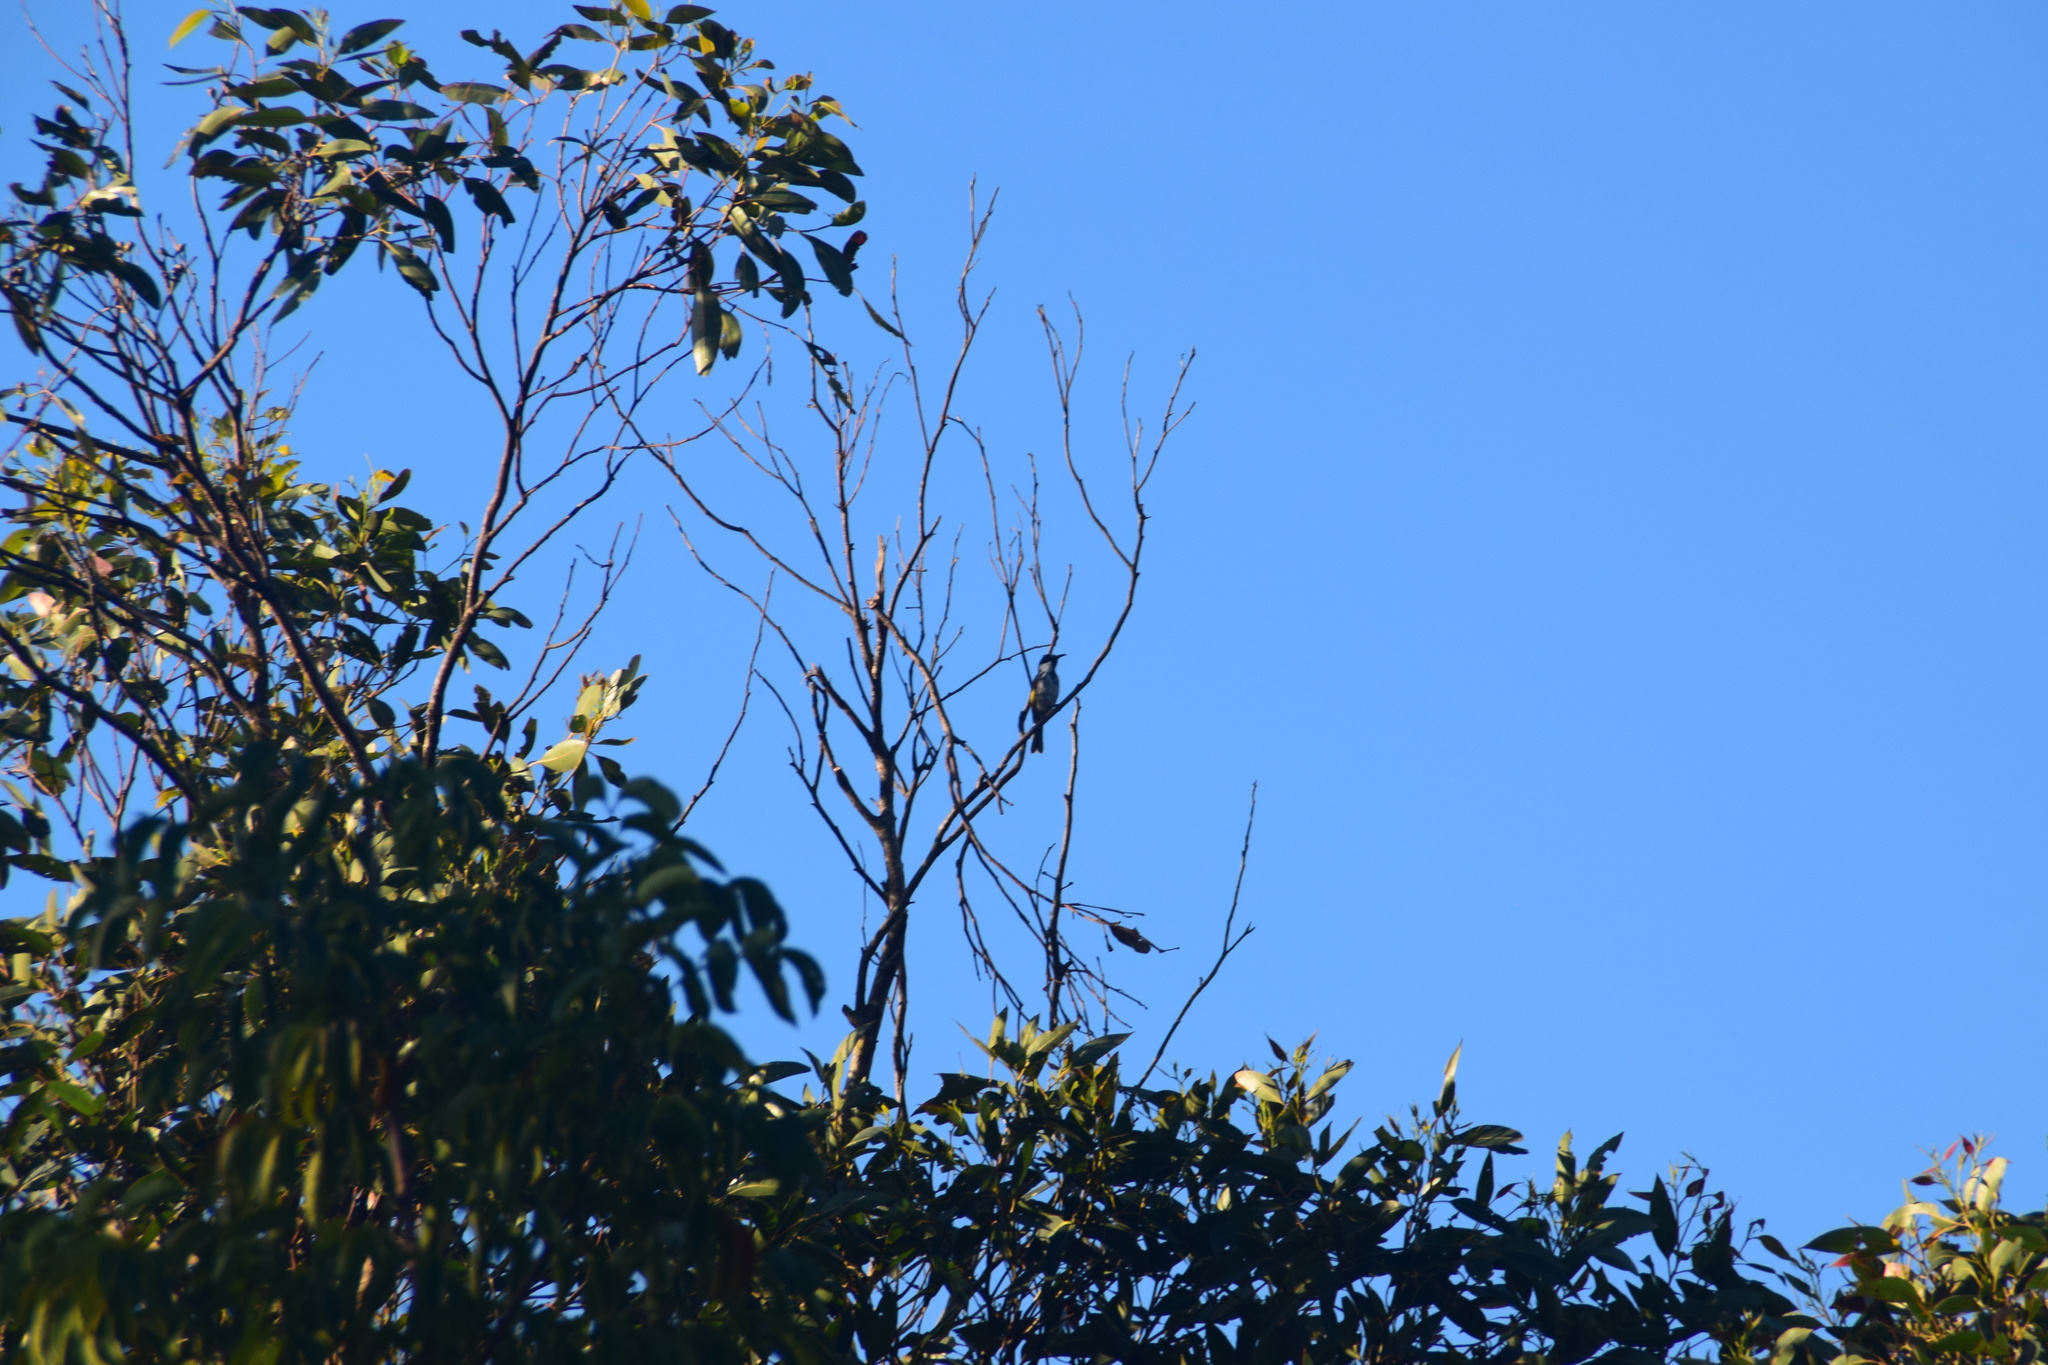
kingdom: Animalia
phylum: Chordata
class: Aves
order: Passeriformes
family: Meliphagidae
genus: Phylidonyris
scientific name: Phylidonyris niger
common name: White-cheeked honeyeater
